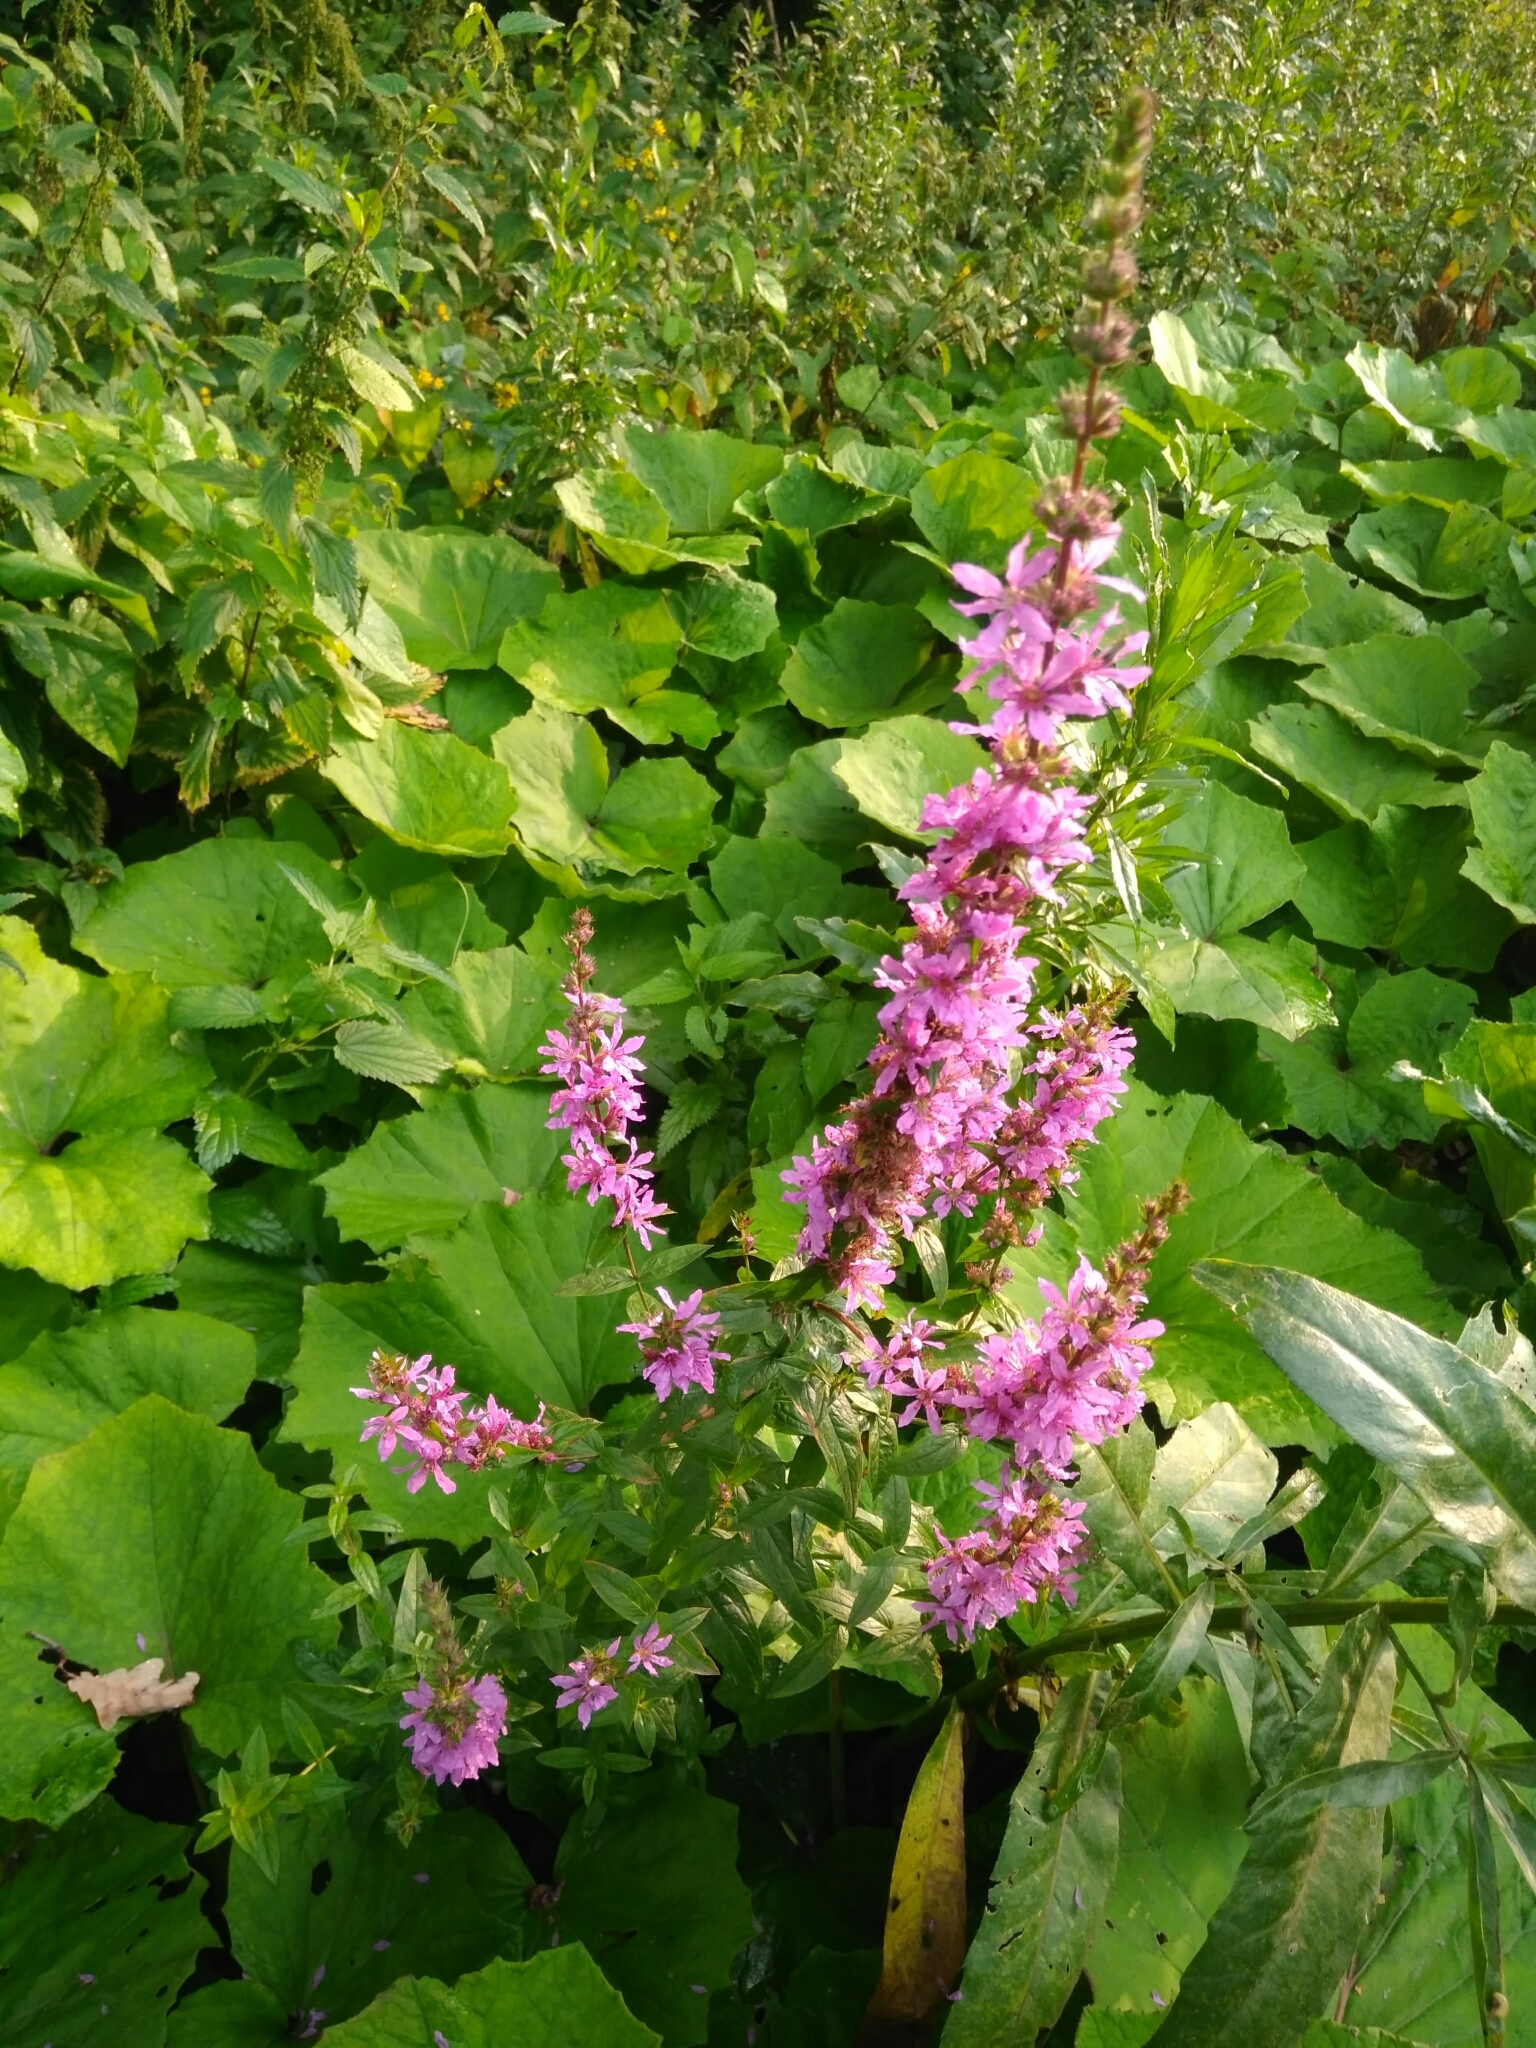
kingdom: Plantae
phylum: Tracheophyta
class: Magnoliopsida
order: Myrtales
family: Lythraceae
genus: Lythrum
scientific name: Lythrum salicaria
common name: Purple loosestrife
